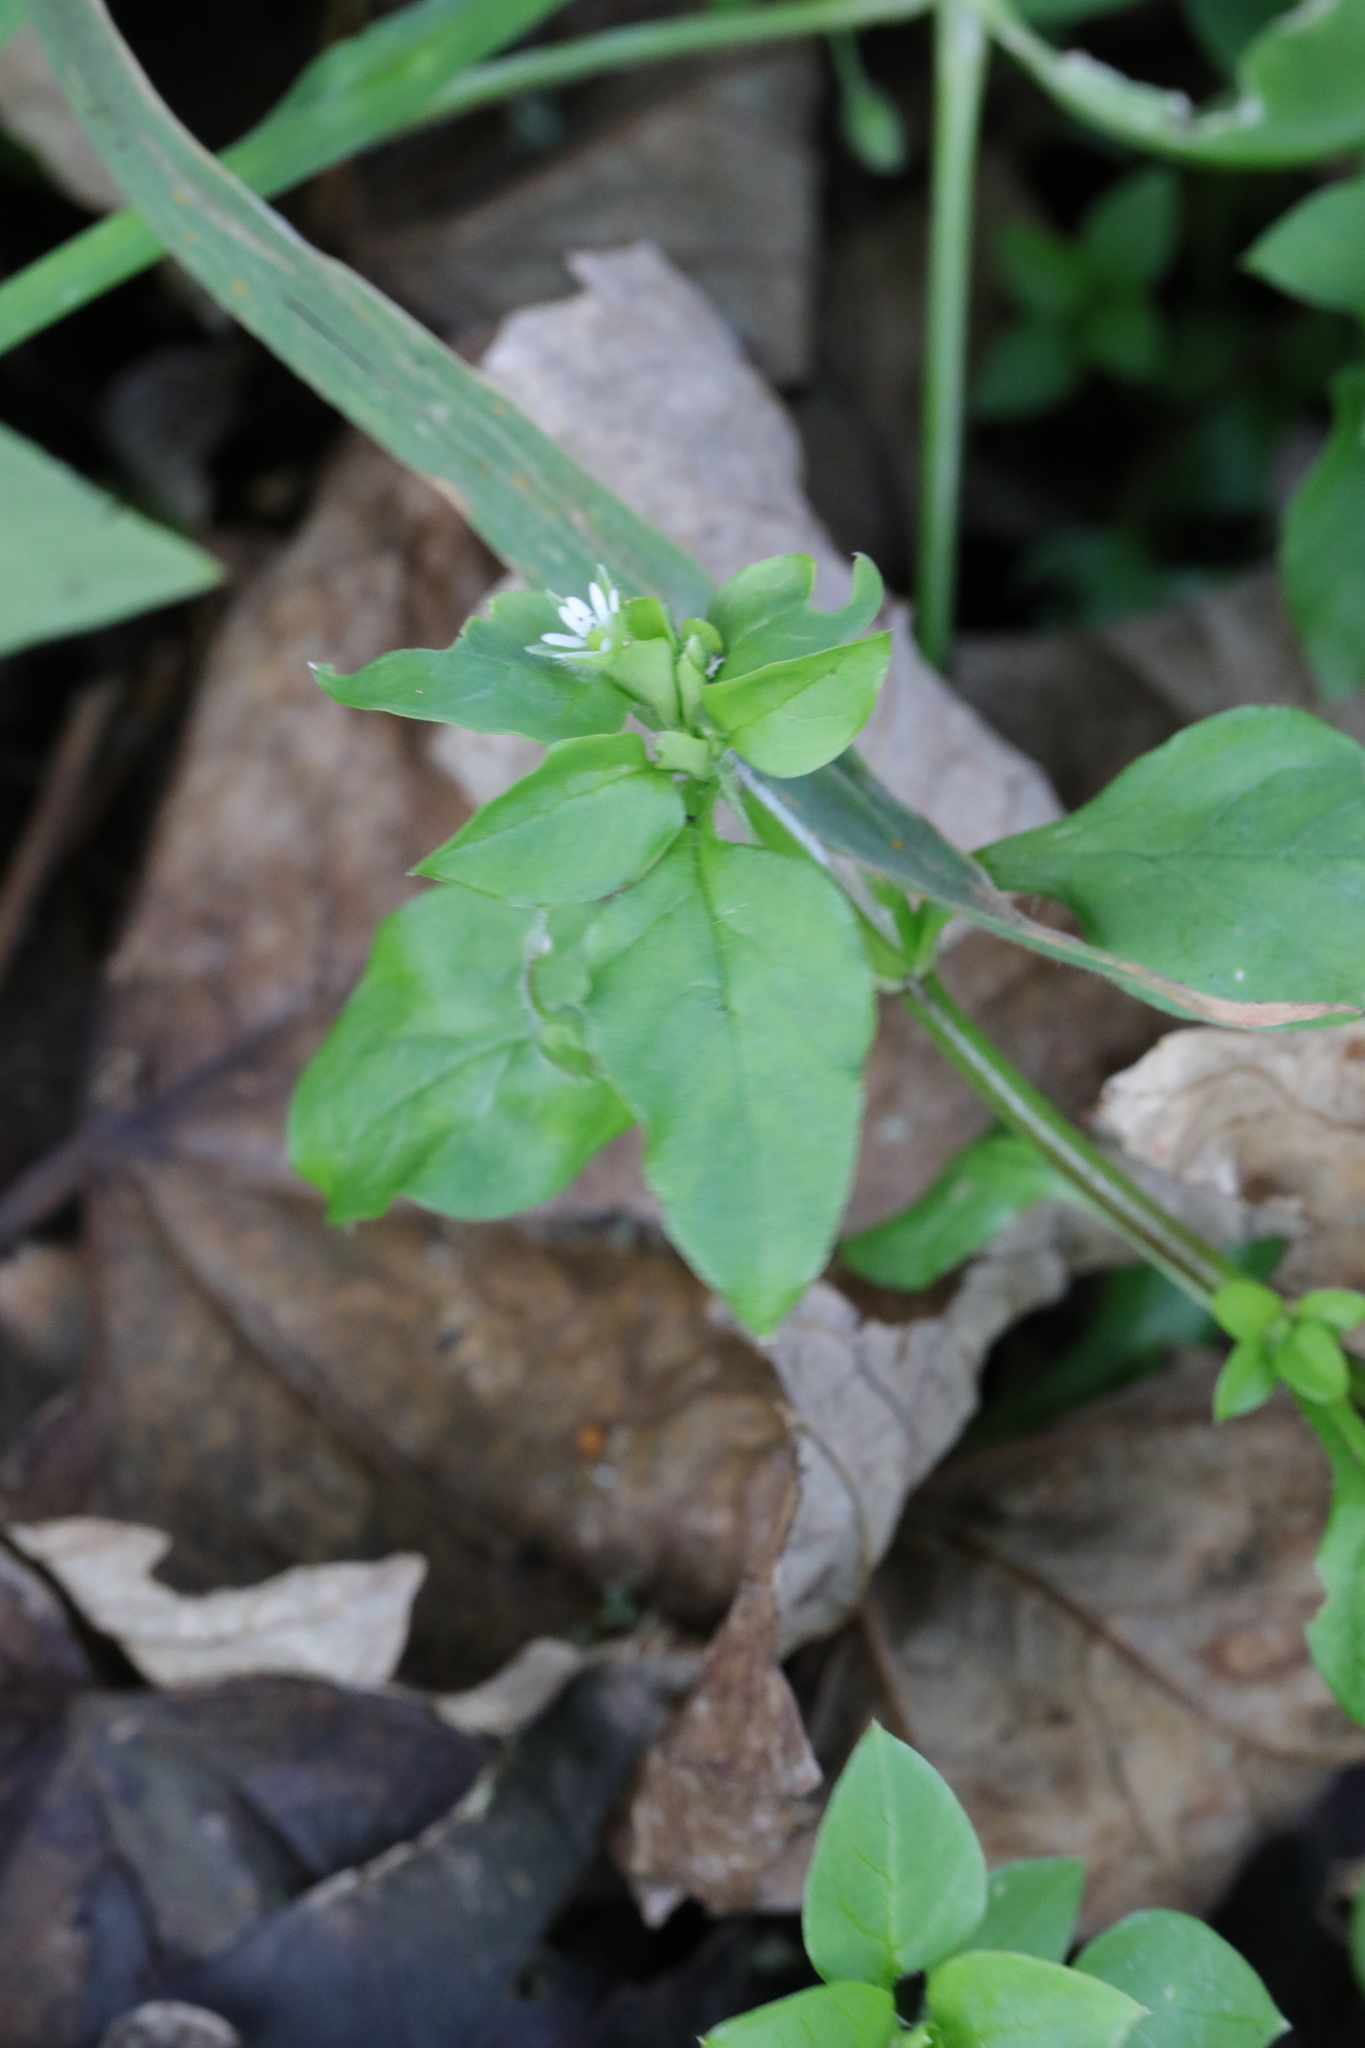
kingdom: Plantae
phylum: Tracheophyta
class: Magnoliopsida
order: Caryophyllales
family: Caryophyllaceae
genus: Stellaria
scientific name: Stellaria media
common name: Common chickweed
